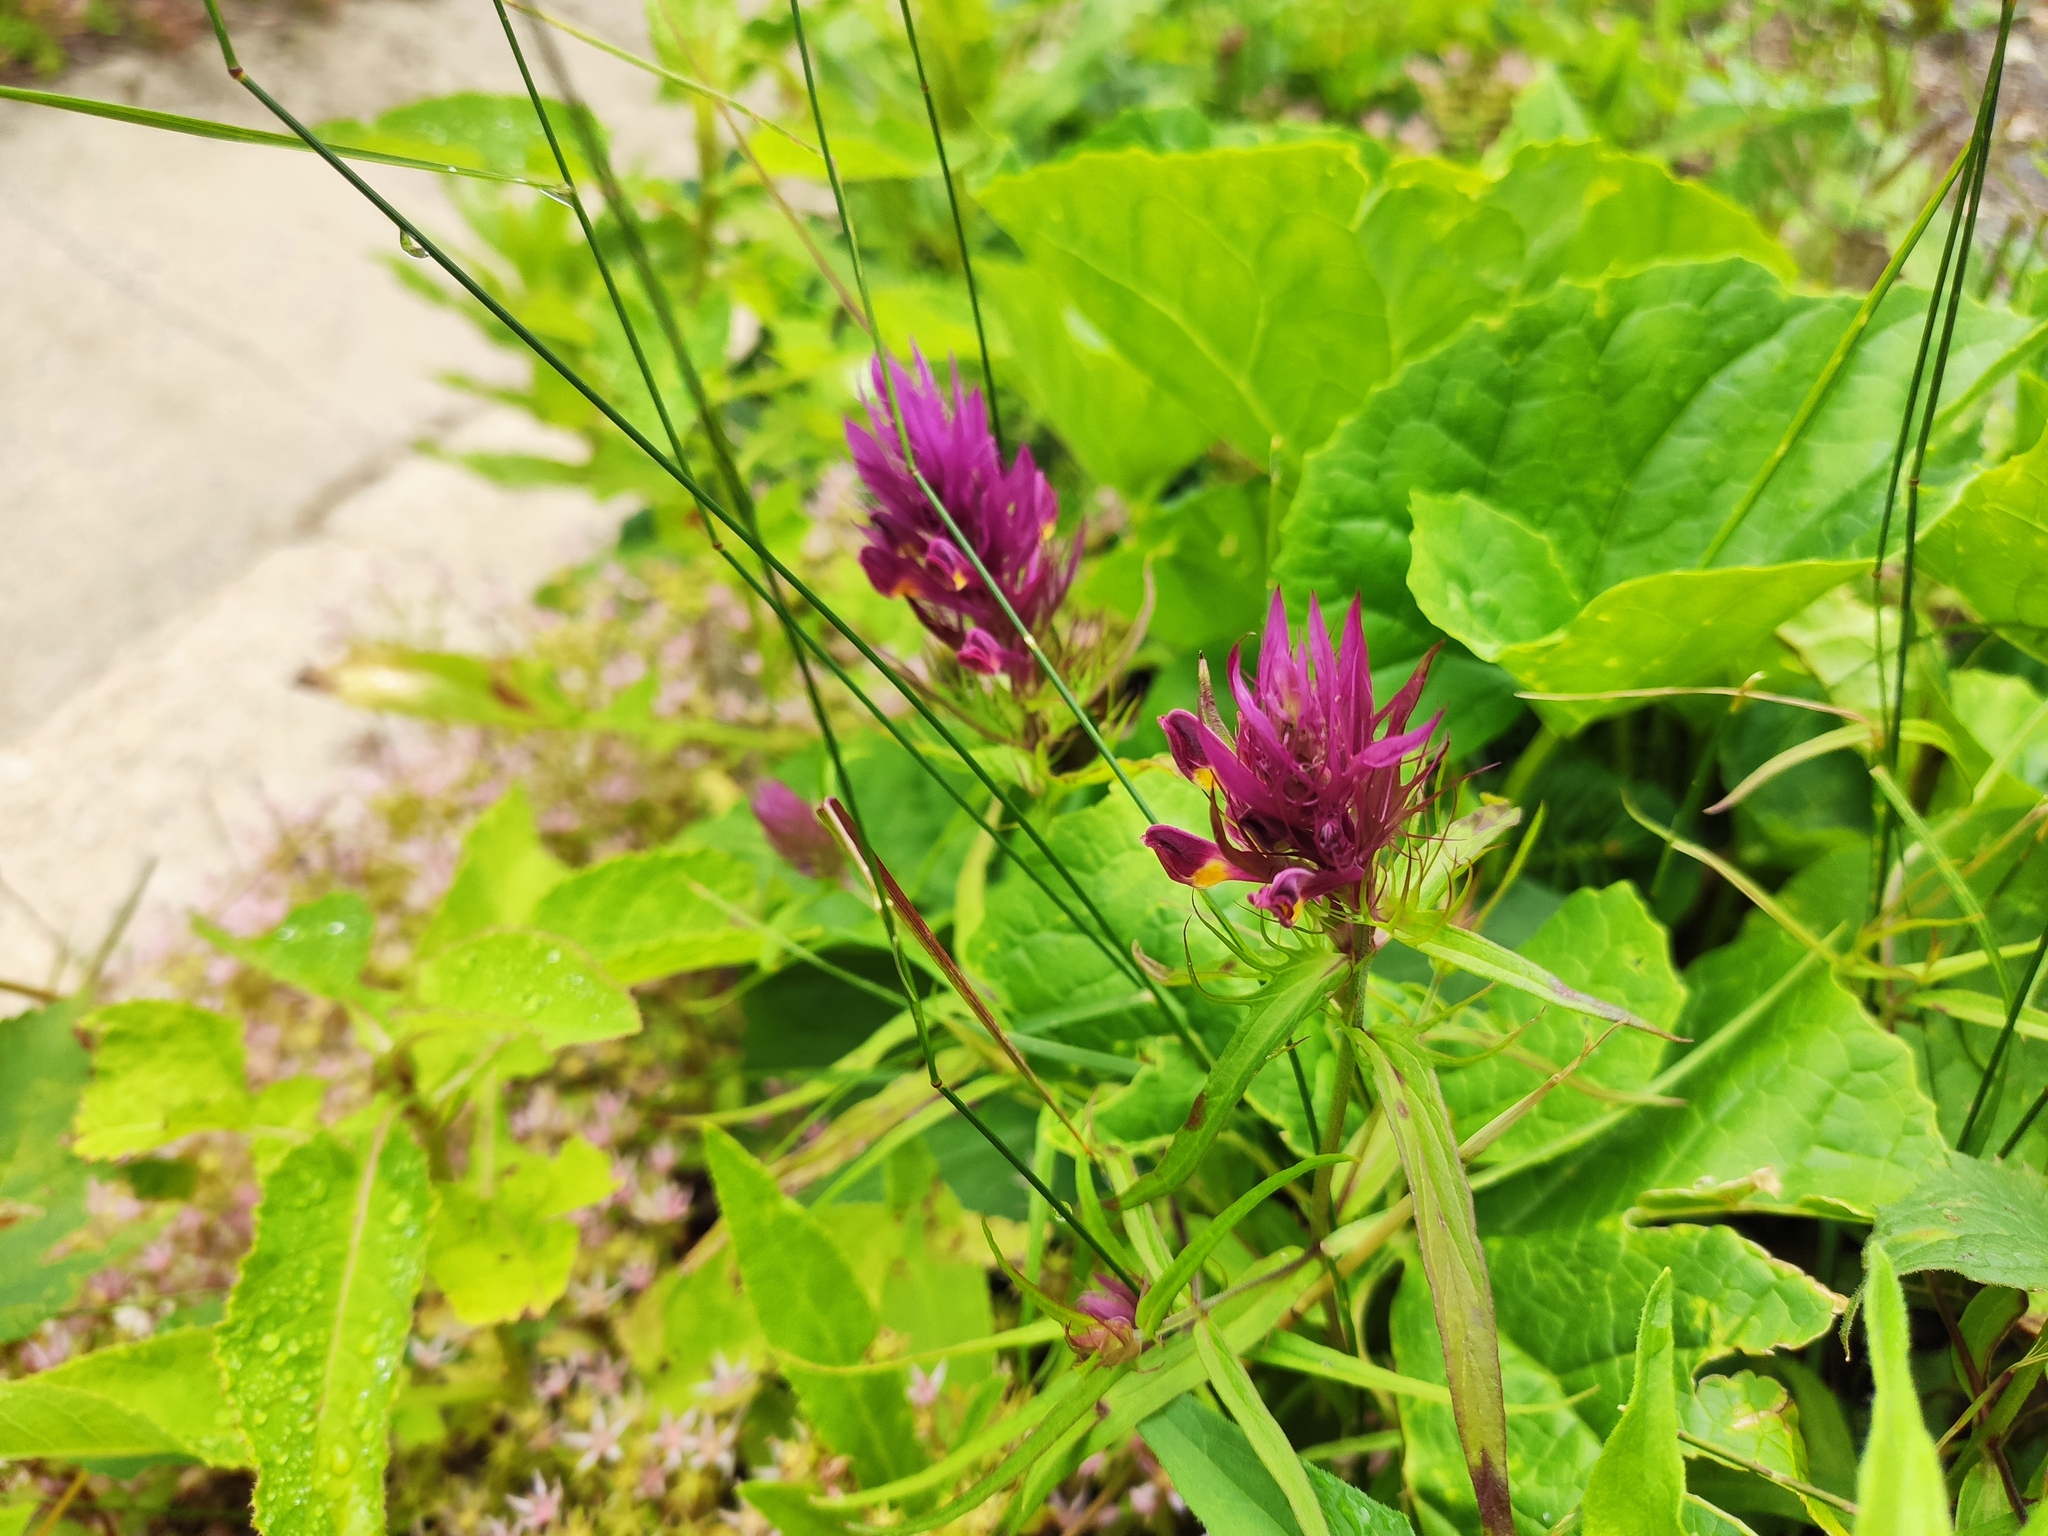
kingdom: Plantae
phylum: Tracheophyta
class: Magnoliopsida
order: Lamiales
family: Orobanchaceae
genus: Melampyrum
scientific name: Melampyrum arvense
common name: Field cow-wheat
